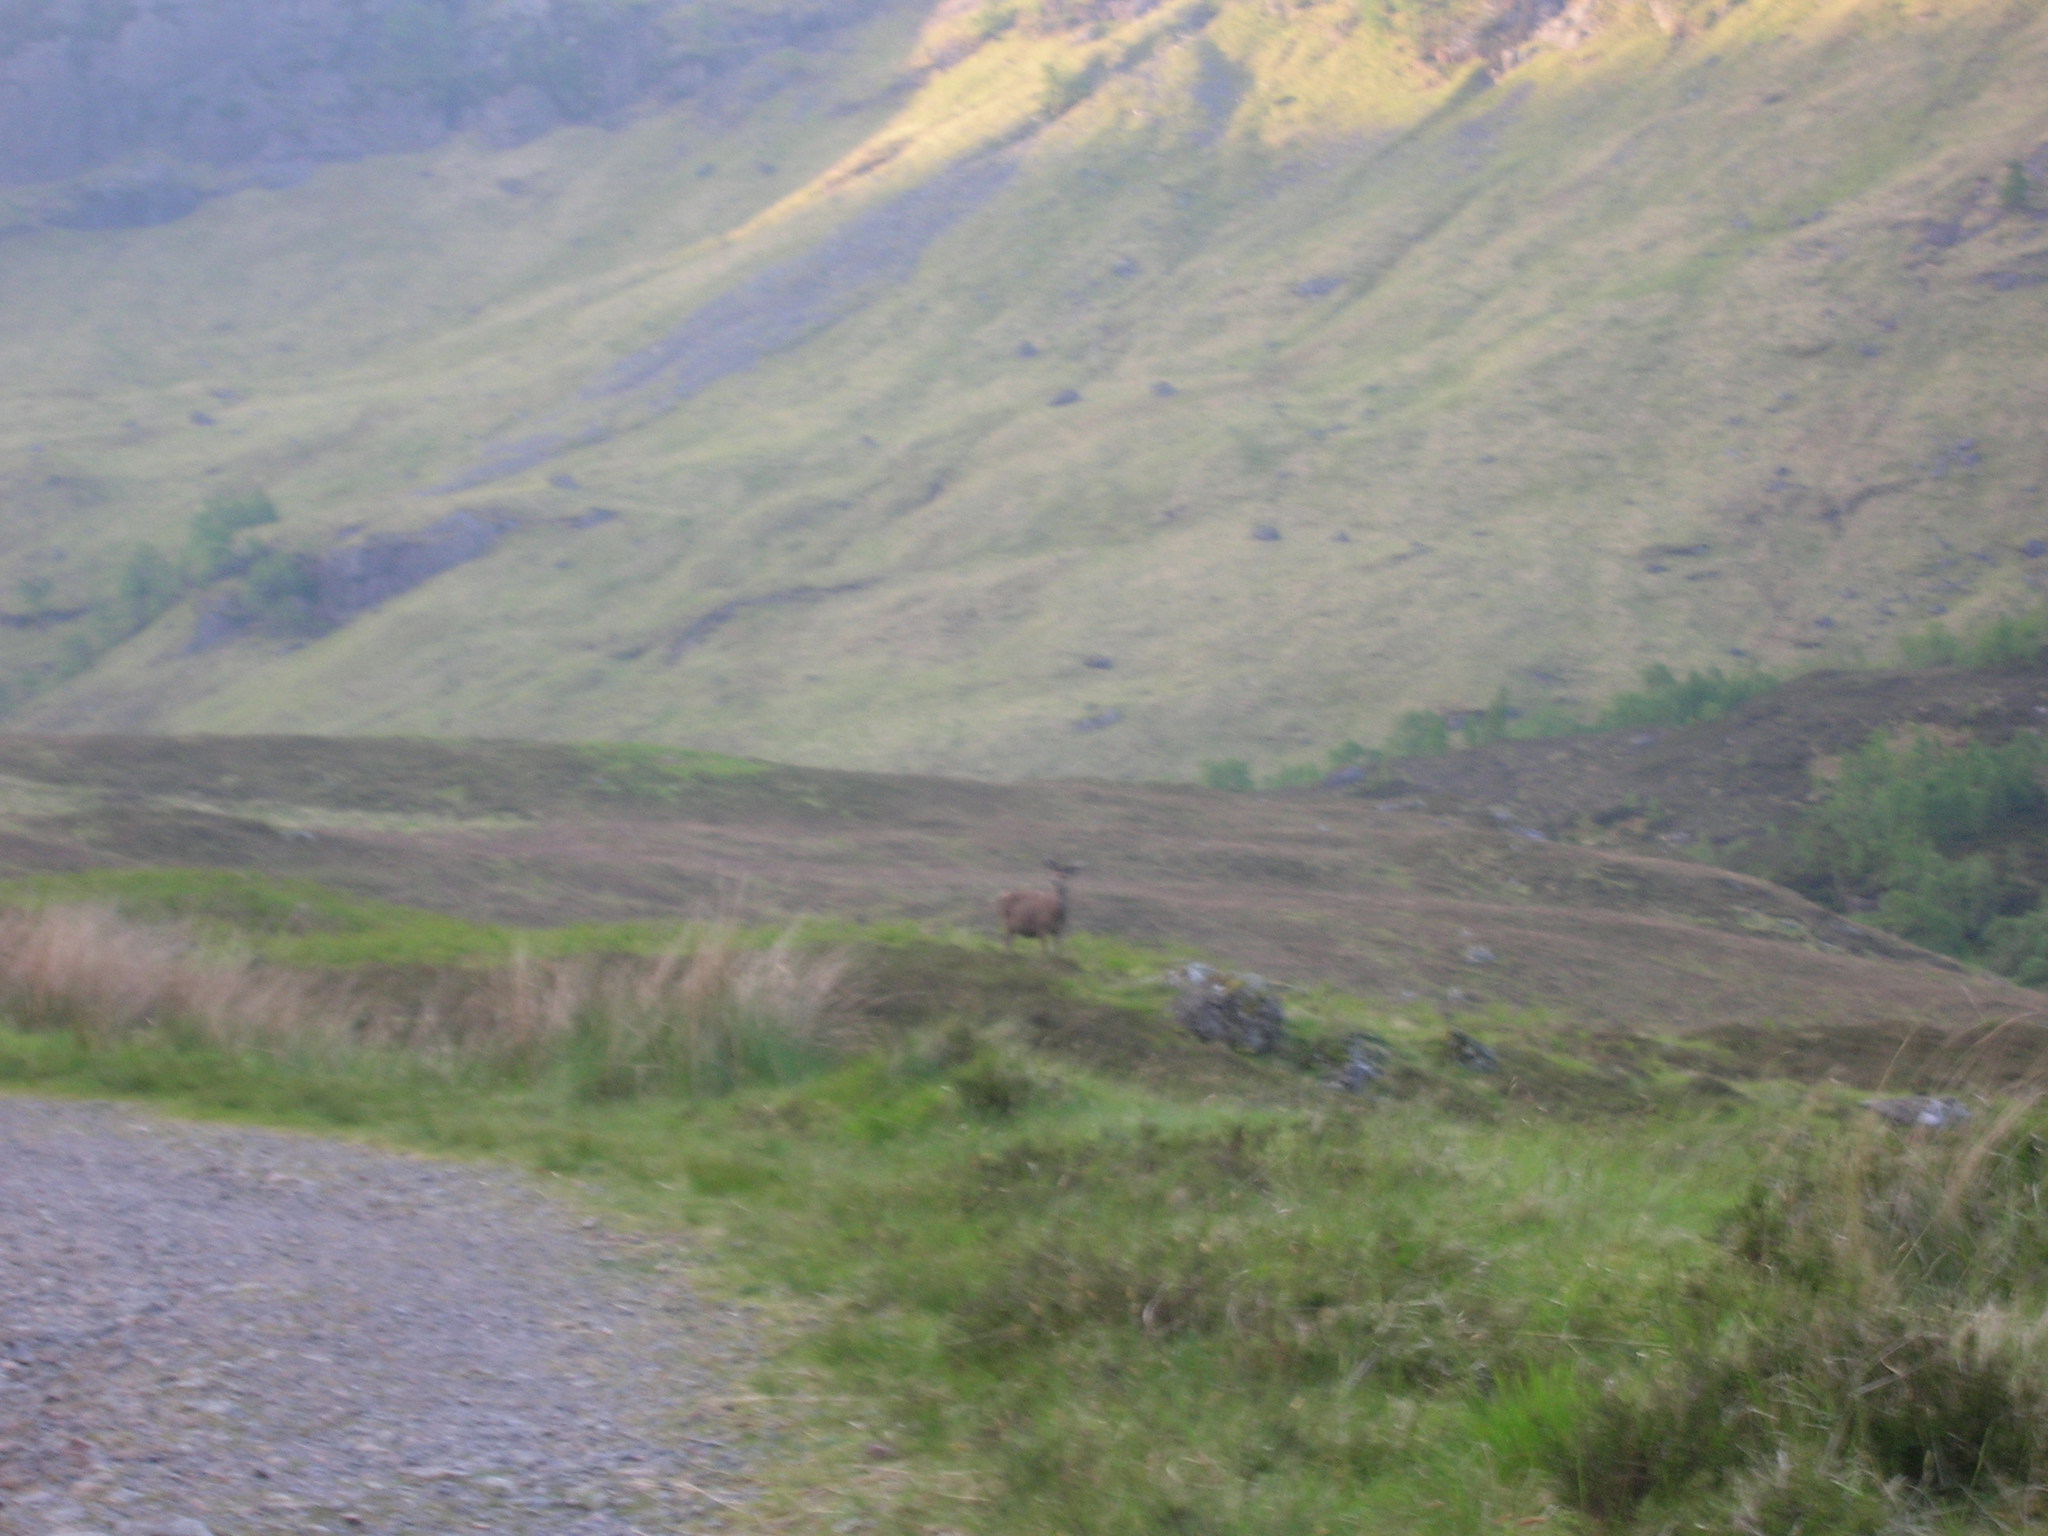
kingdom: Animalia
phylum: Chordata
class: Mammalia
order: Artiodactyla
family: Cervidae
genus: Cervus
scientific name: Cervus elaphus
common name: Red deer
